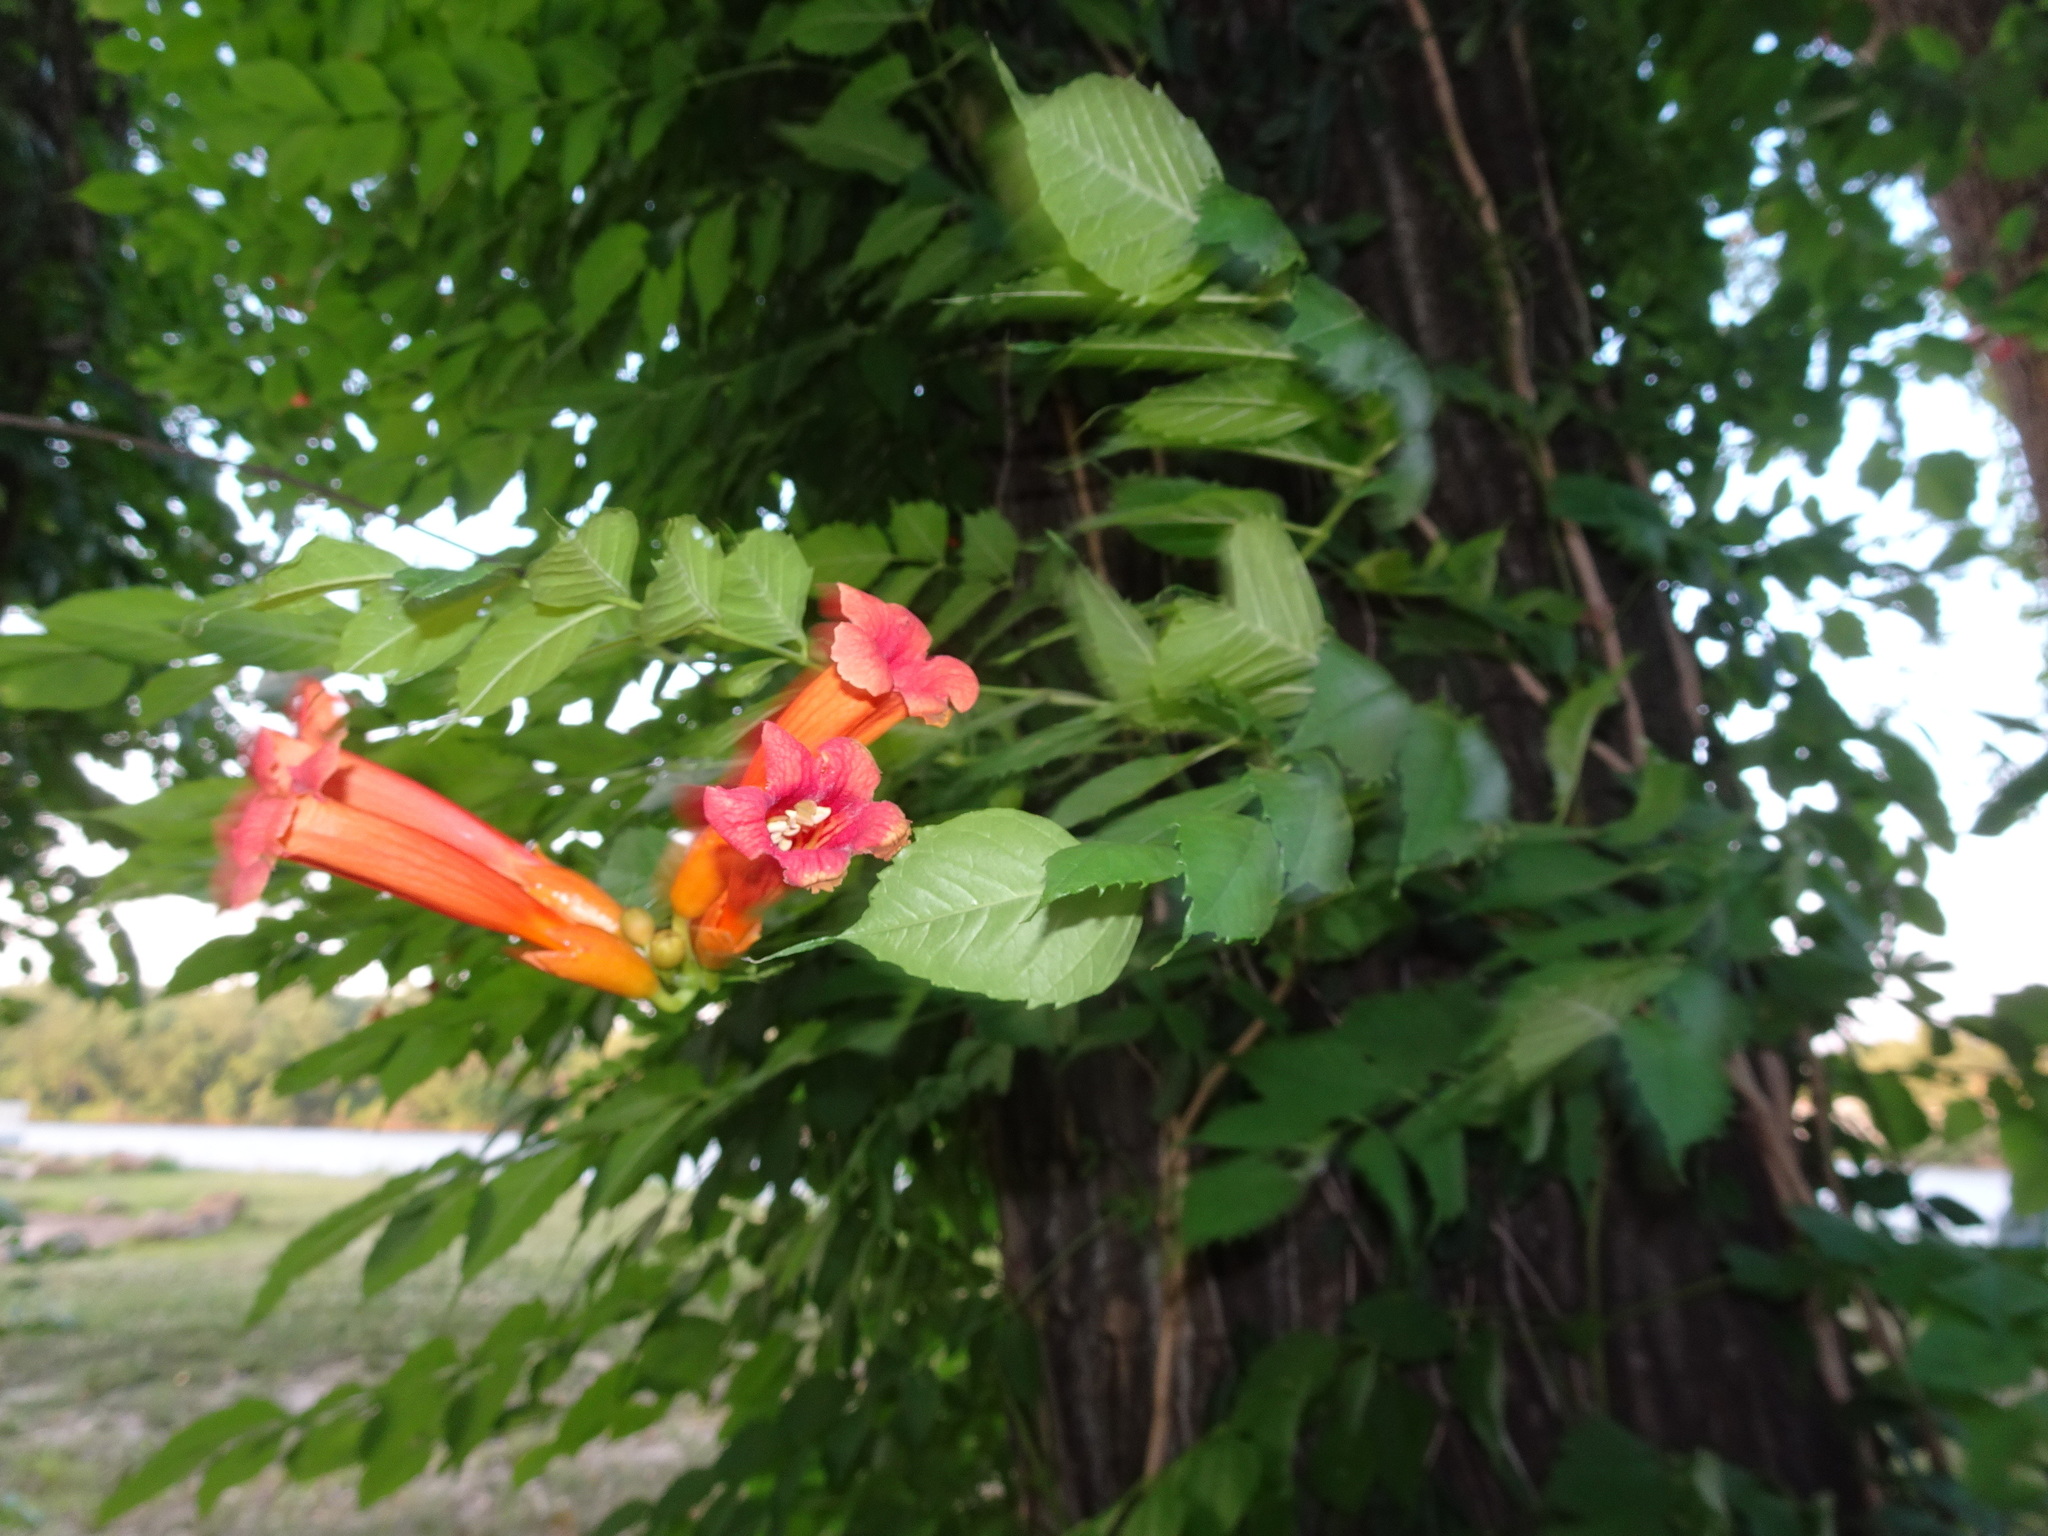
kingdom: Plantae
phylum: Tracheophyta
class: Magnoliopsida
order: Lamiales
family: Bignoniaceae
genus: Campsis
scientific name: Campsis radicans
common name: Trumpet-creeper
